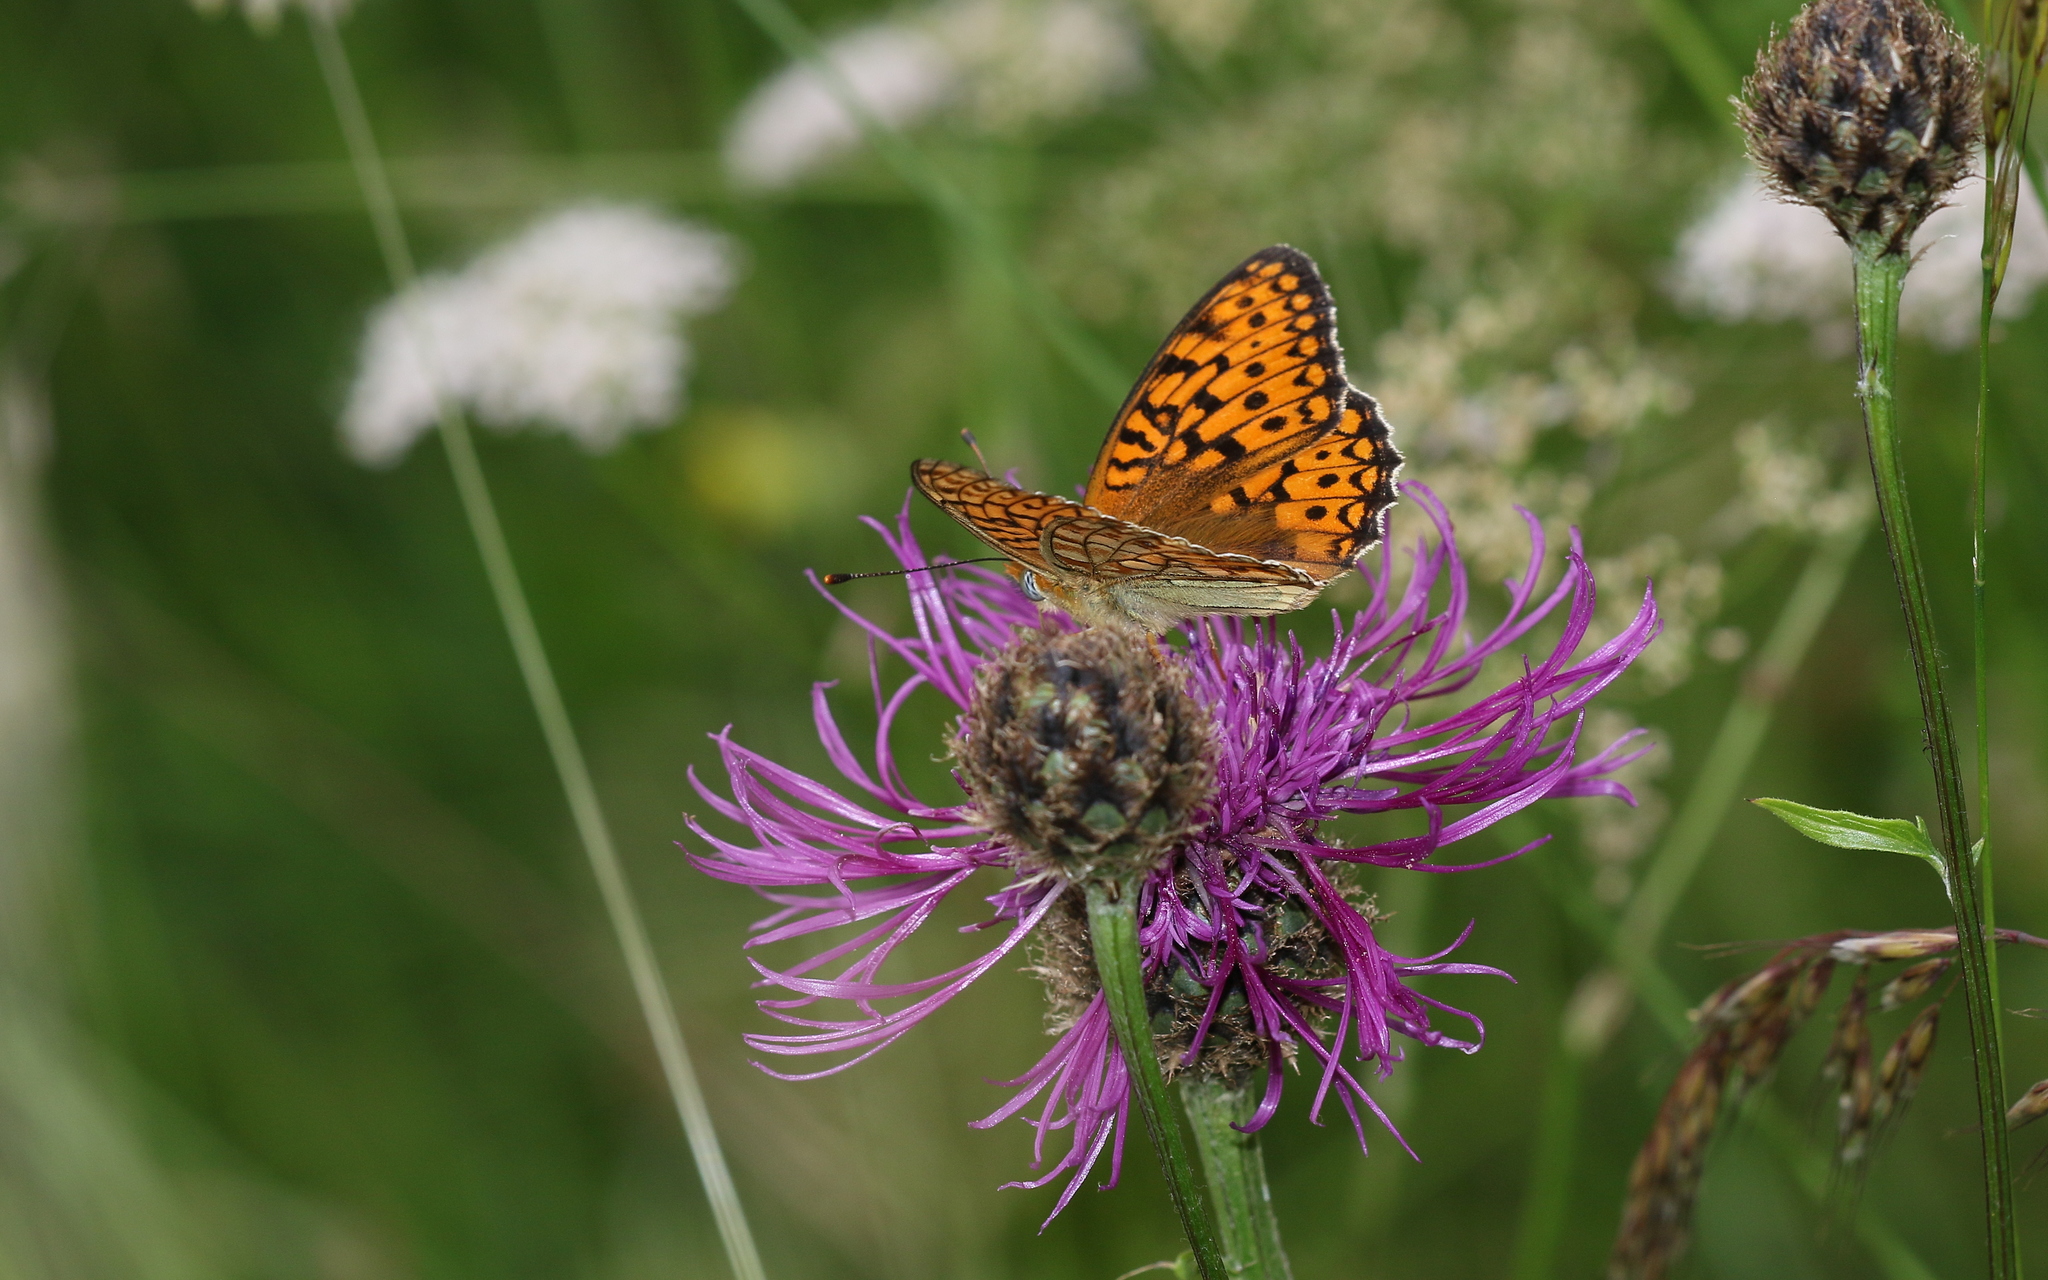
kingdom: Animalia
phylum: Arthropoda
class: Insecta
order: Lepidoptera
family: Nymphalidae
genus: Fabriciana
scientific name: Fabriciana niobe
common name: Niobe fritillary
